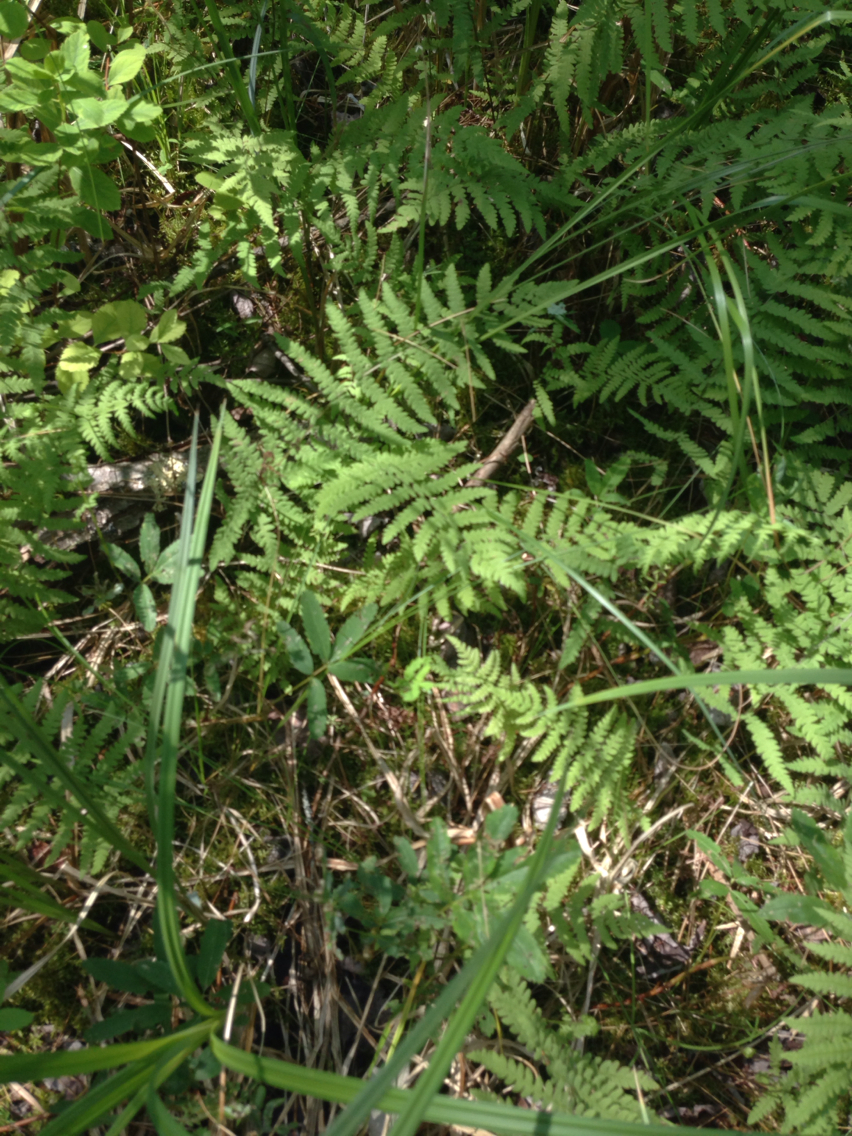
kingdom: Plantae
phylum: Tracheophyta
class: Polypodiopsida
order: Polypodiales
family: Thelypteridaceae
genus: Thelypteris
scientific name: Thelypteris palustris
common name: Marsh fern
